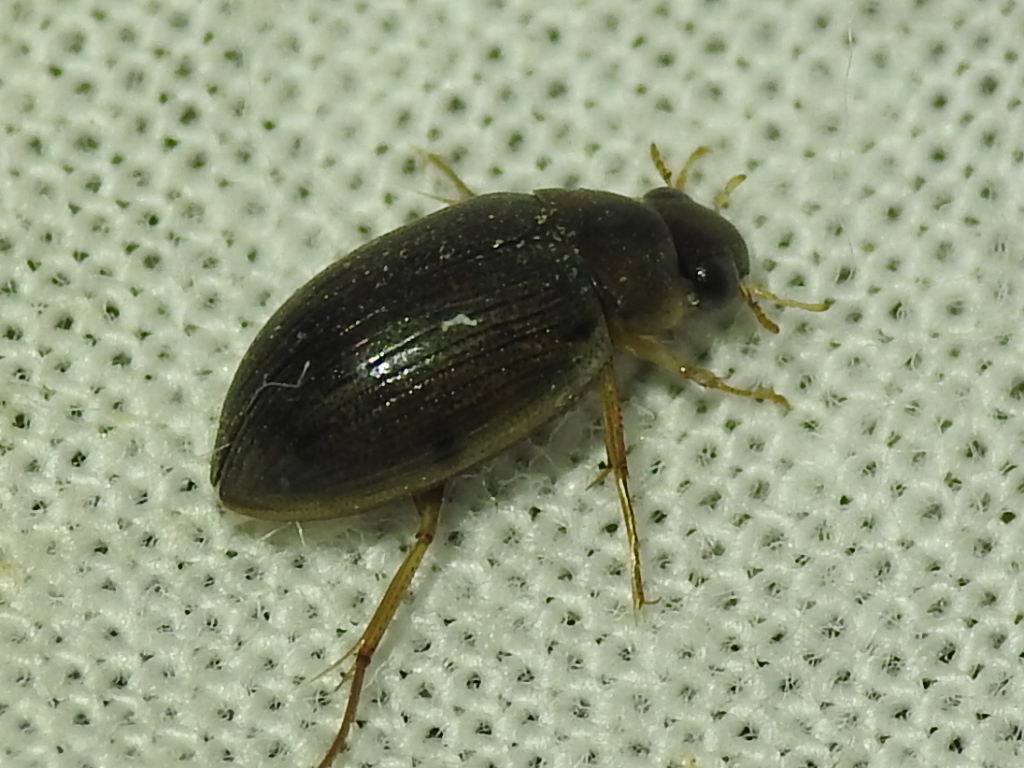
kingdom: Animalia
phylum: Arthropoda
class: Insecta
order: Coleoptera
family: Hydrophilidae
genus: Berosus
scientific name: Berosus
